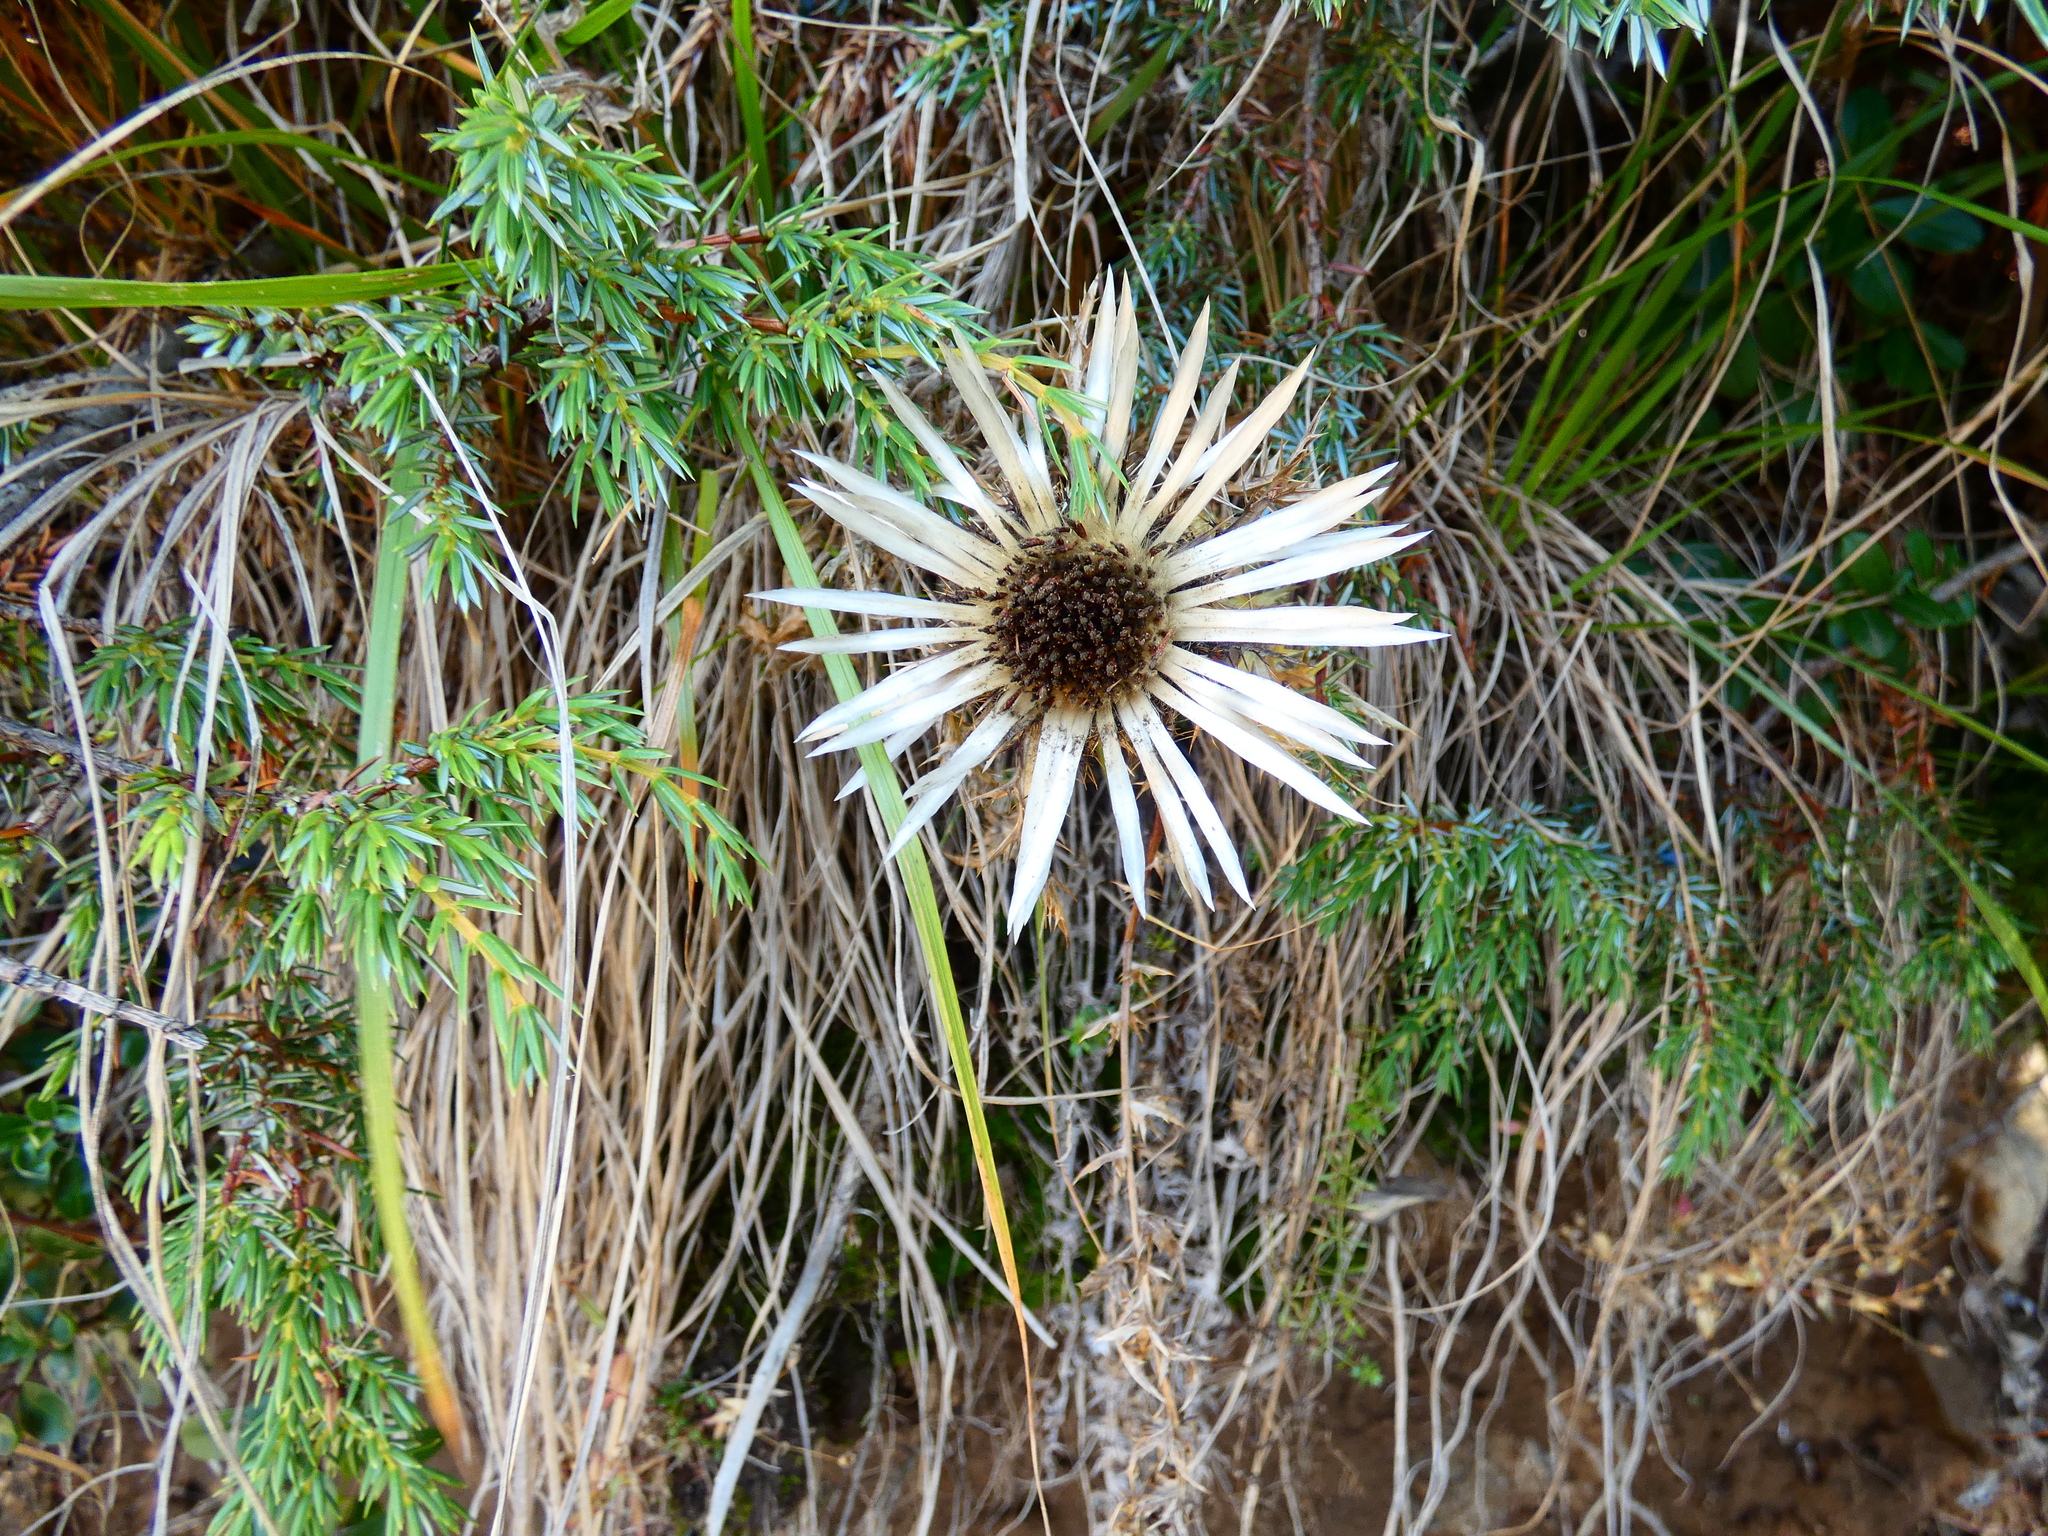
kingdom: Plantae
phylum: Tracheophyta
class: Magnoliopsida
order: Asterales
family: Asteraceae
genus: Carlina
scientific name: Carlina acaulis
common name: Stemless carline thistle
